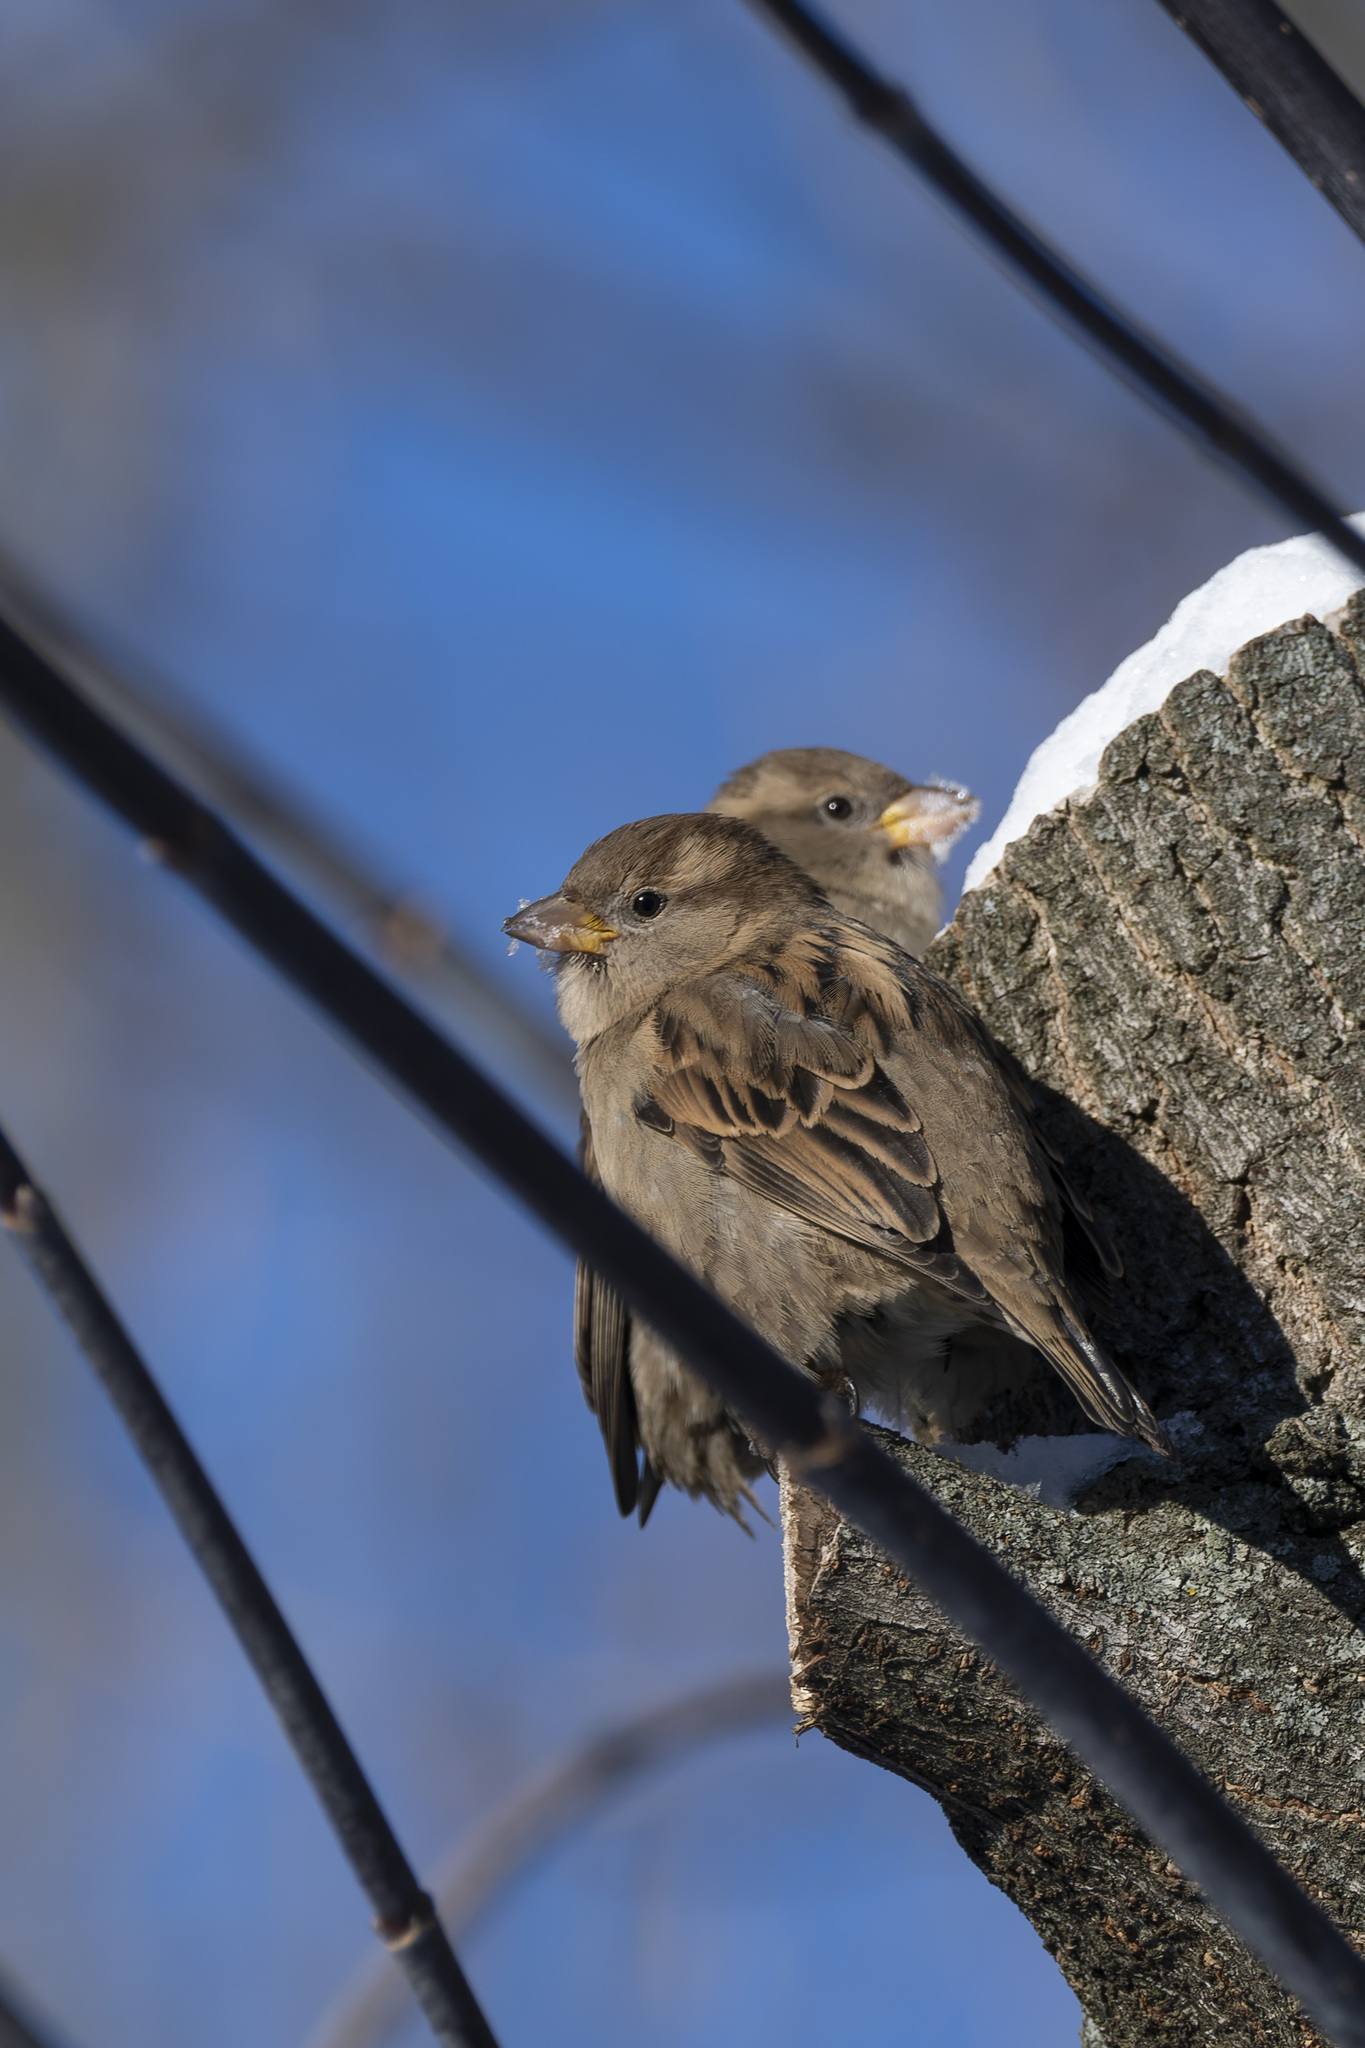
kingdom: Animalia
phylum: Chordata
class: Aves
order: Passeriformes
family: Passeridae
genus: Passer
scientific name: Passer domesticus
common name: House sparrow
